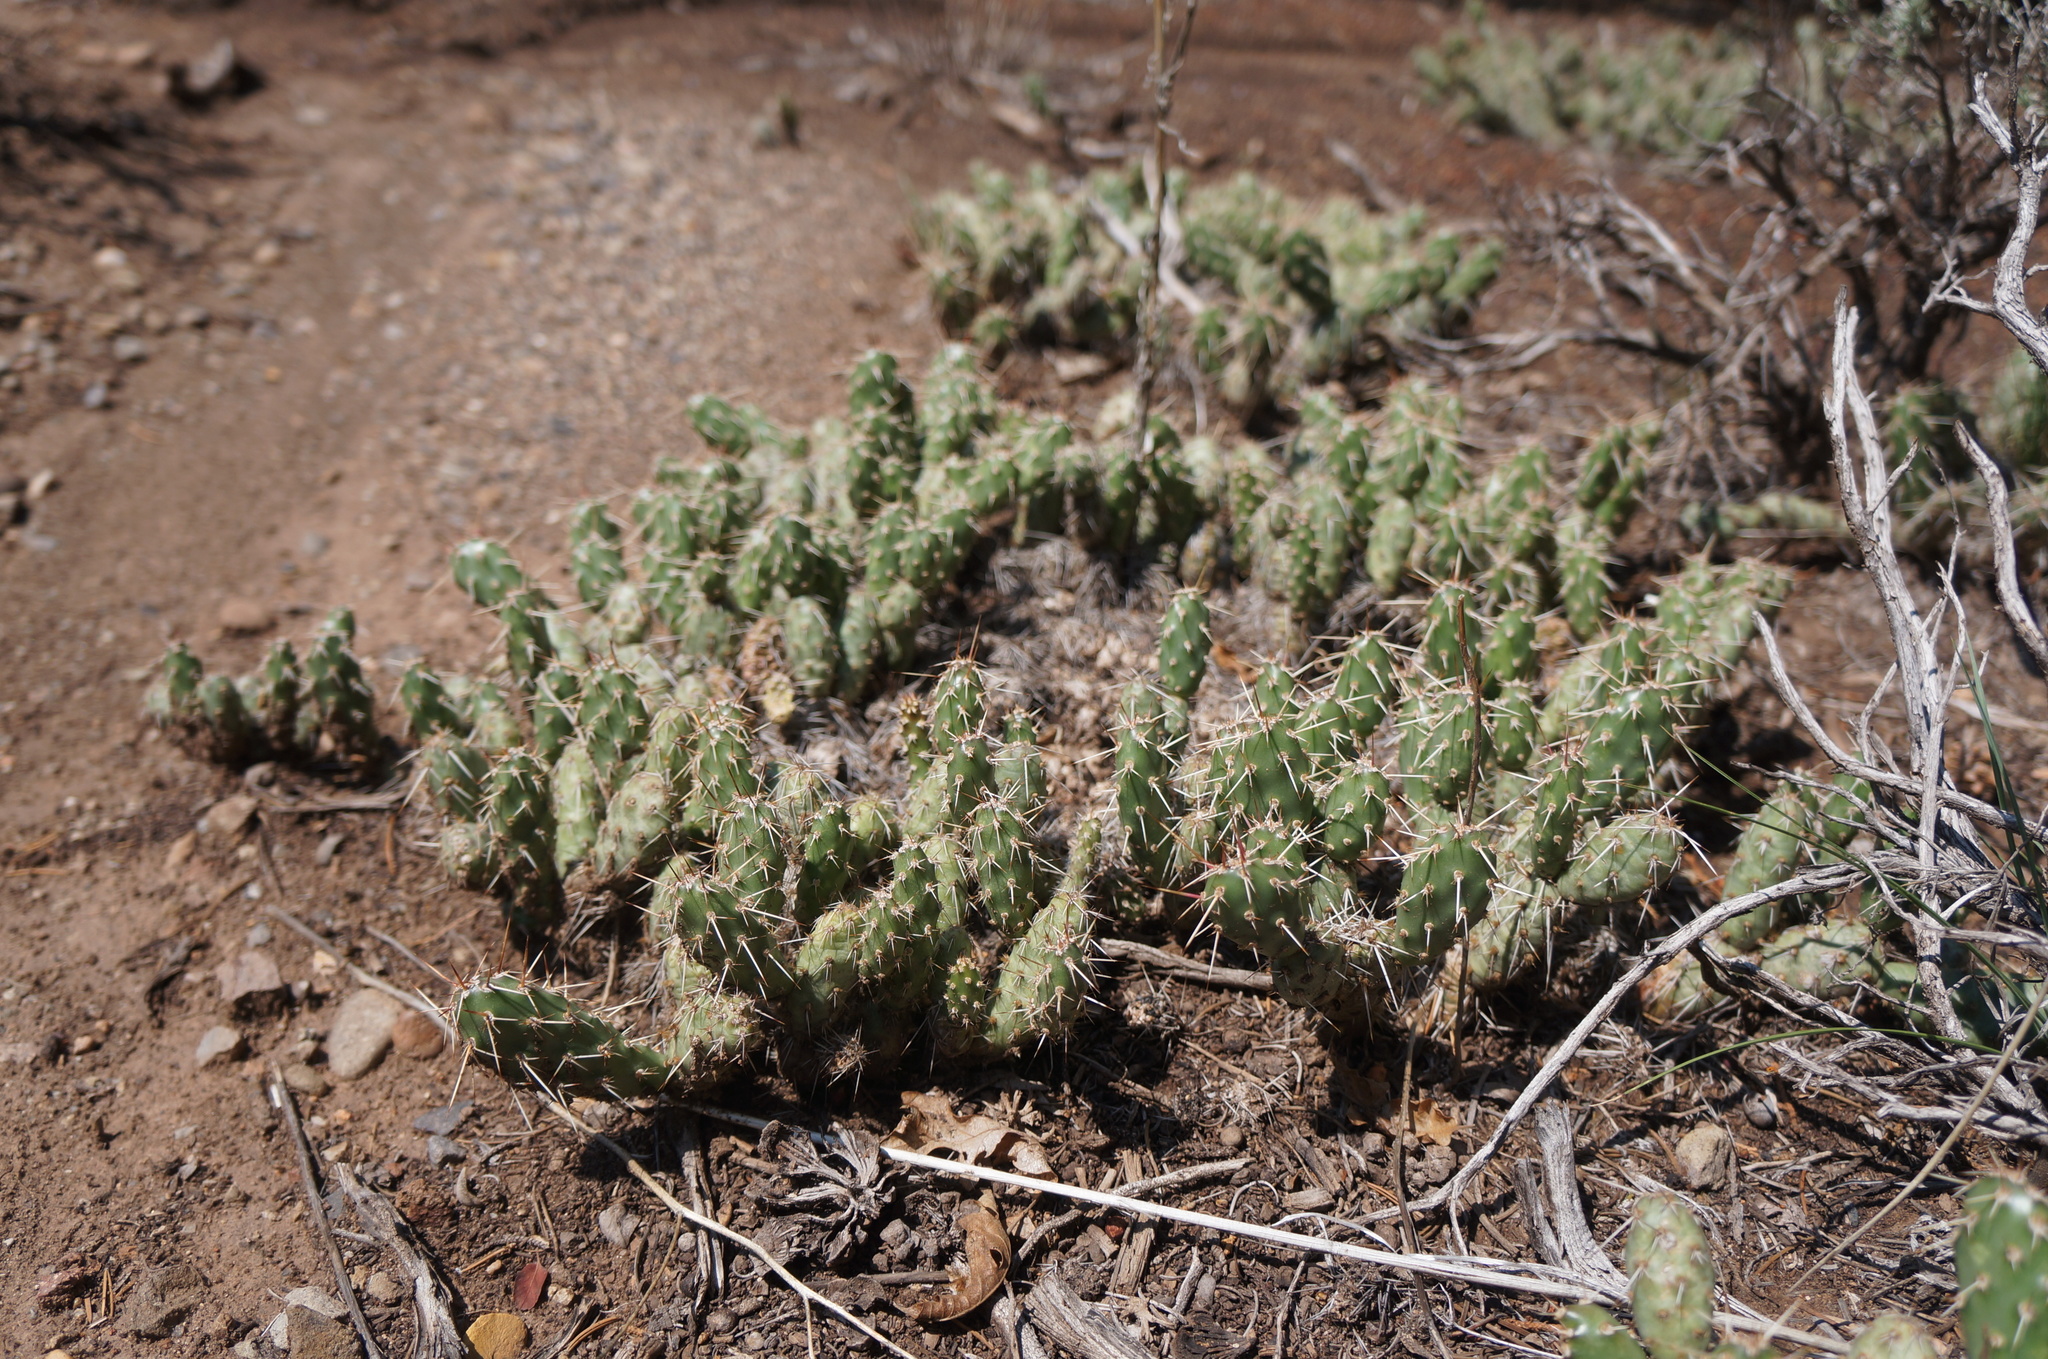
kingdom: Plantae
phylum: Tracheophyta
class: Magnoliopsida
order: Caryophyllales
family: Cactaceae
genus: Opuntia
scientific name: Opuntia fragilis
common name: Brittle cactus
